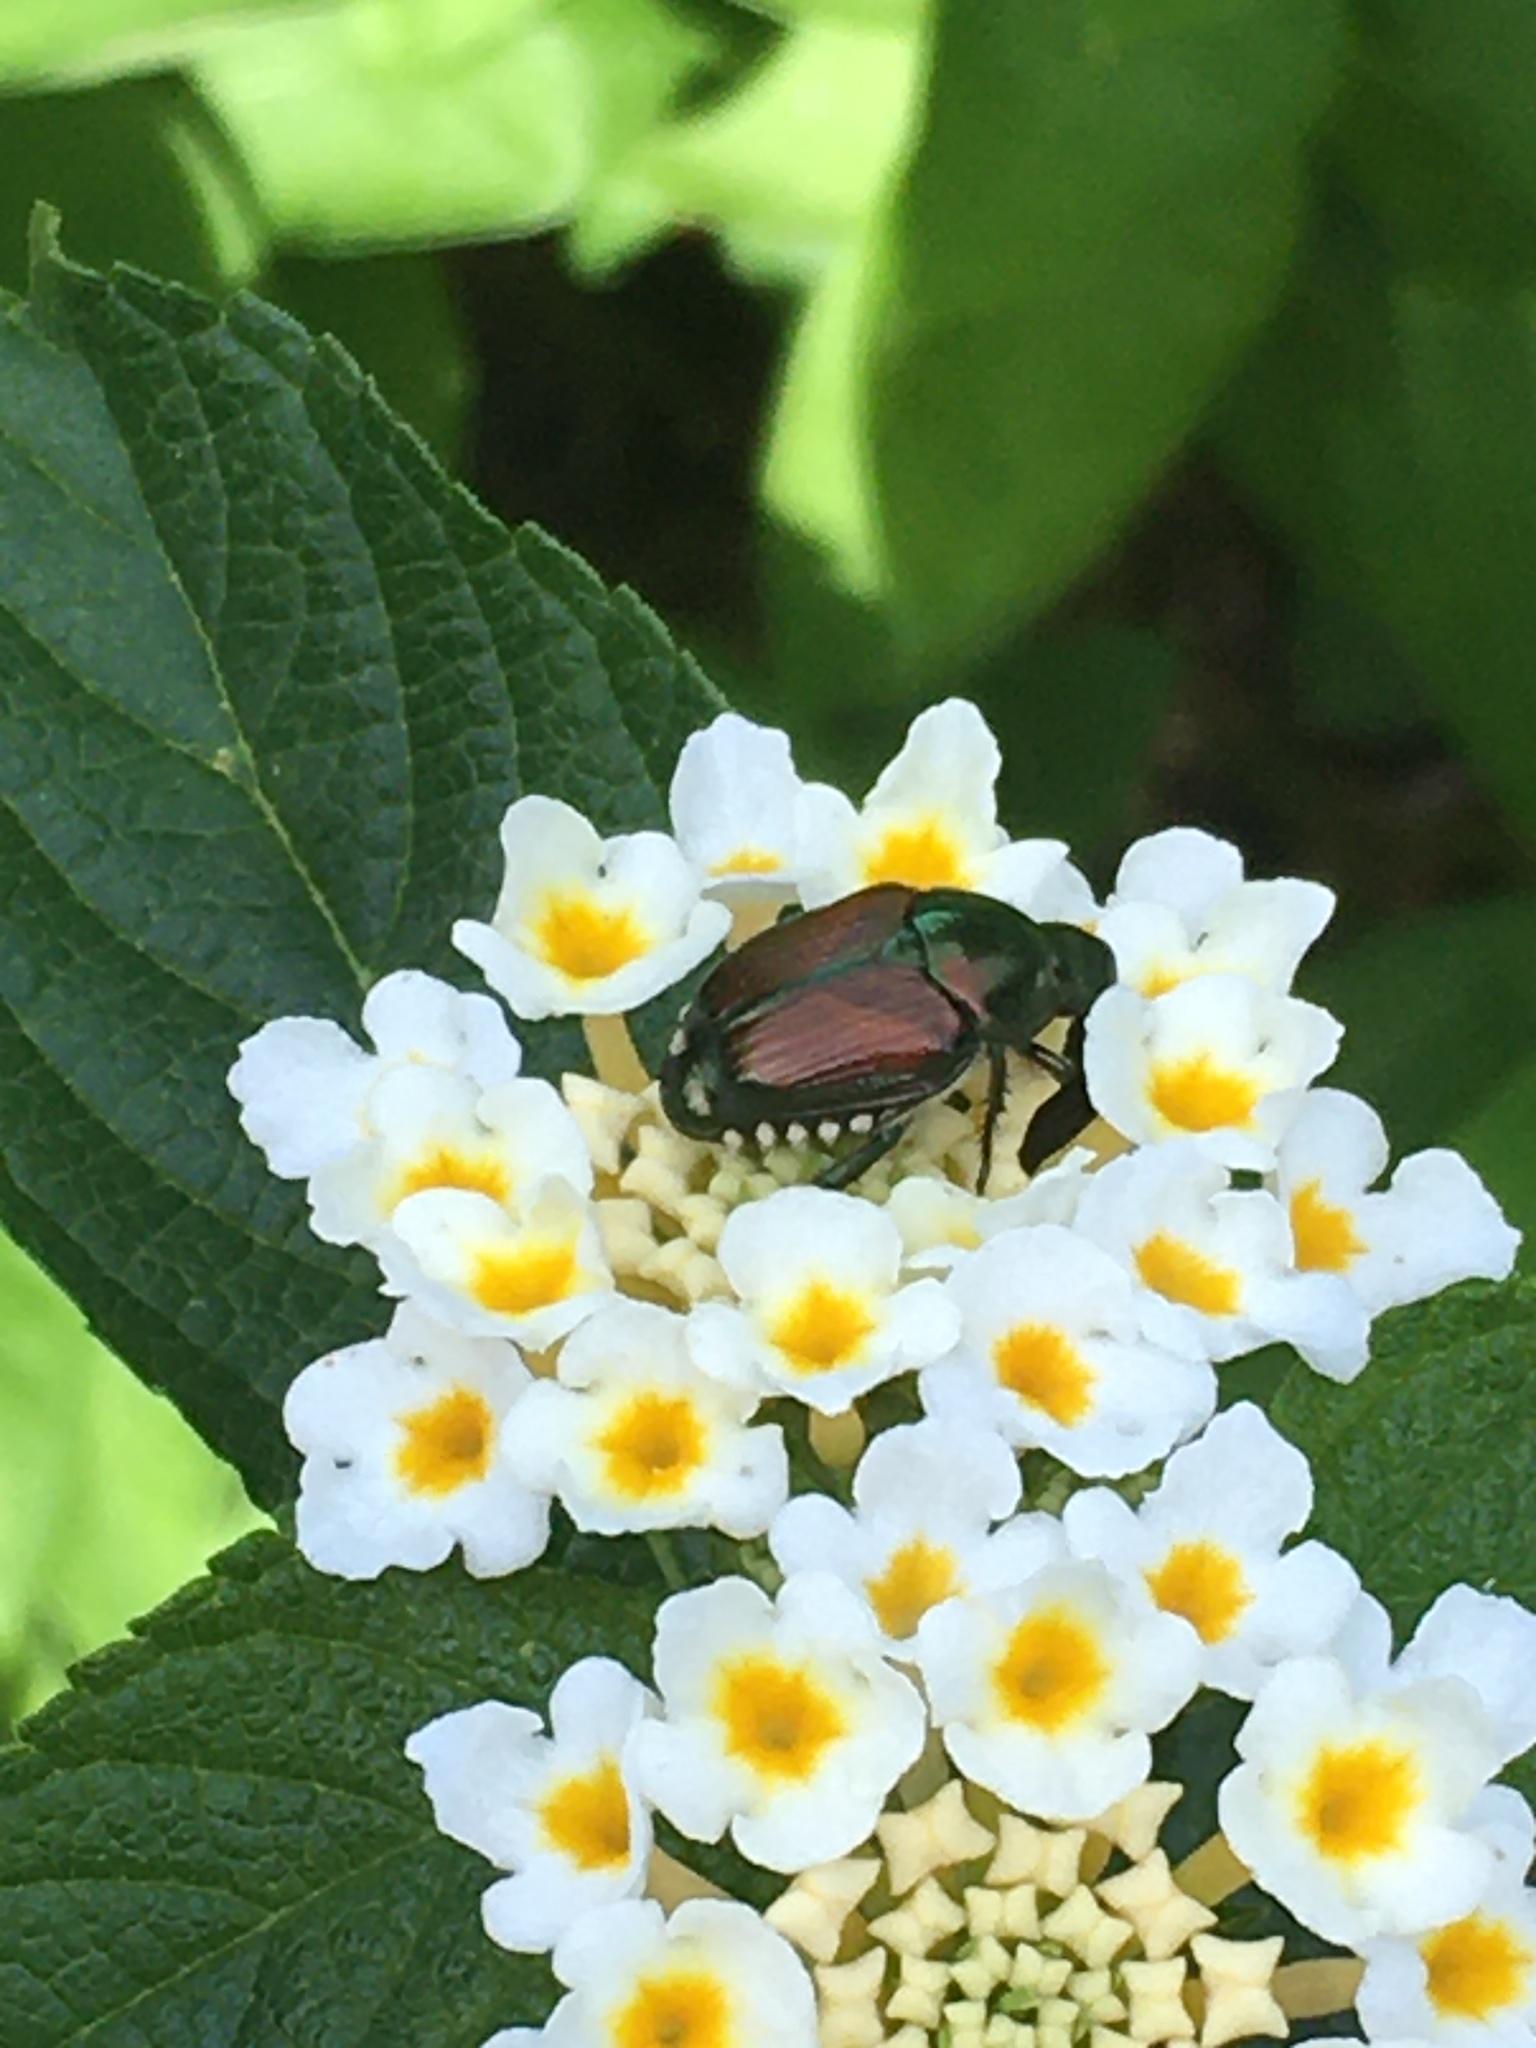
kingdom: Animalia
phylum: Arthropoda
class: Insecta
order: Coleoptera
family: Scarabaeidae
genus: Popillia
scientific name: Popillia japonica
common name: Japanese beetle
